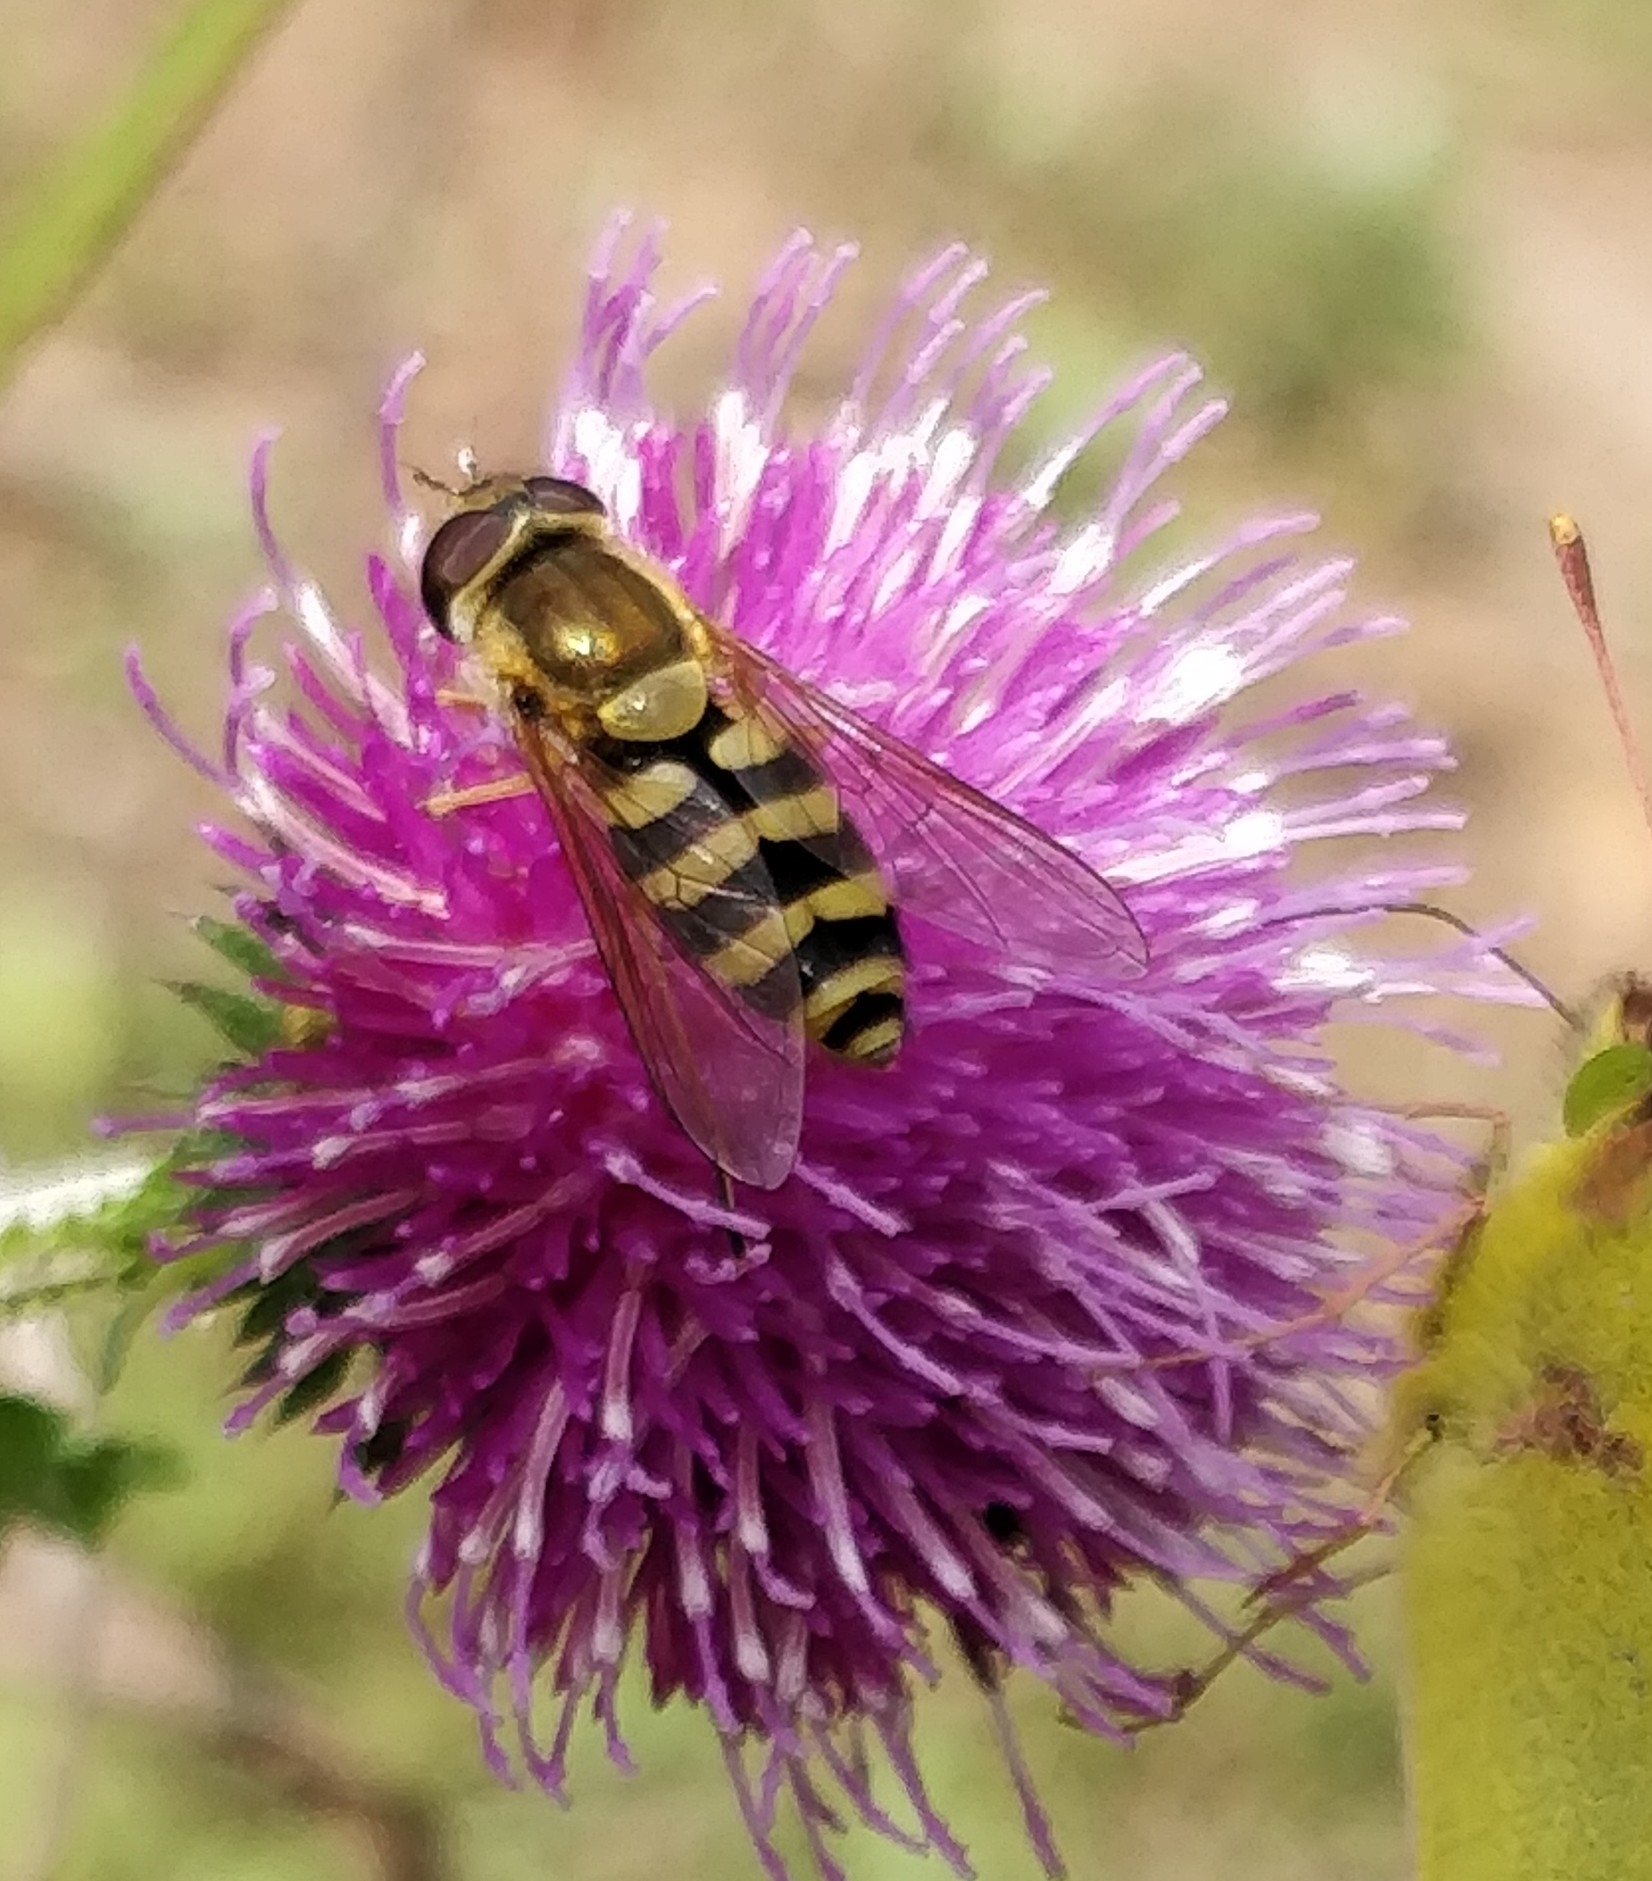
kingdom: Animalia
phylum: Arthropoda
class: Insecta
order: Diptera
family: Syrphidae
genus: Syrphus
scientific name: Syrphus
